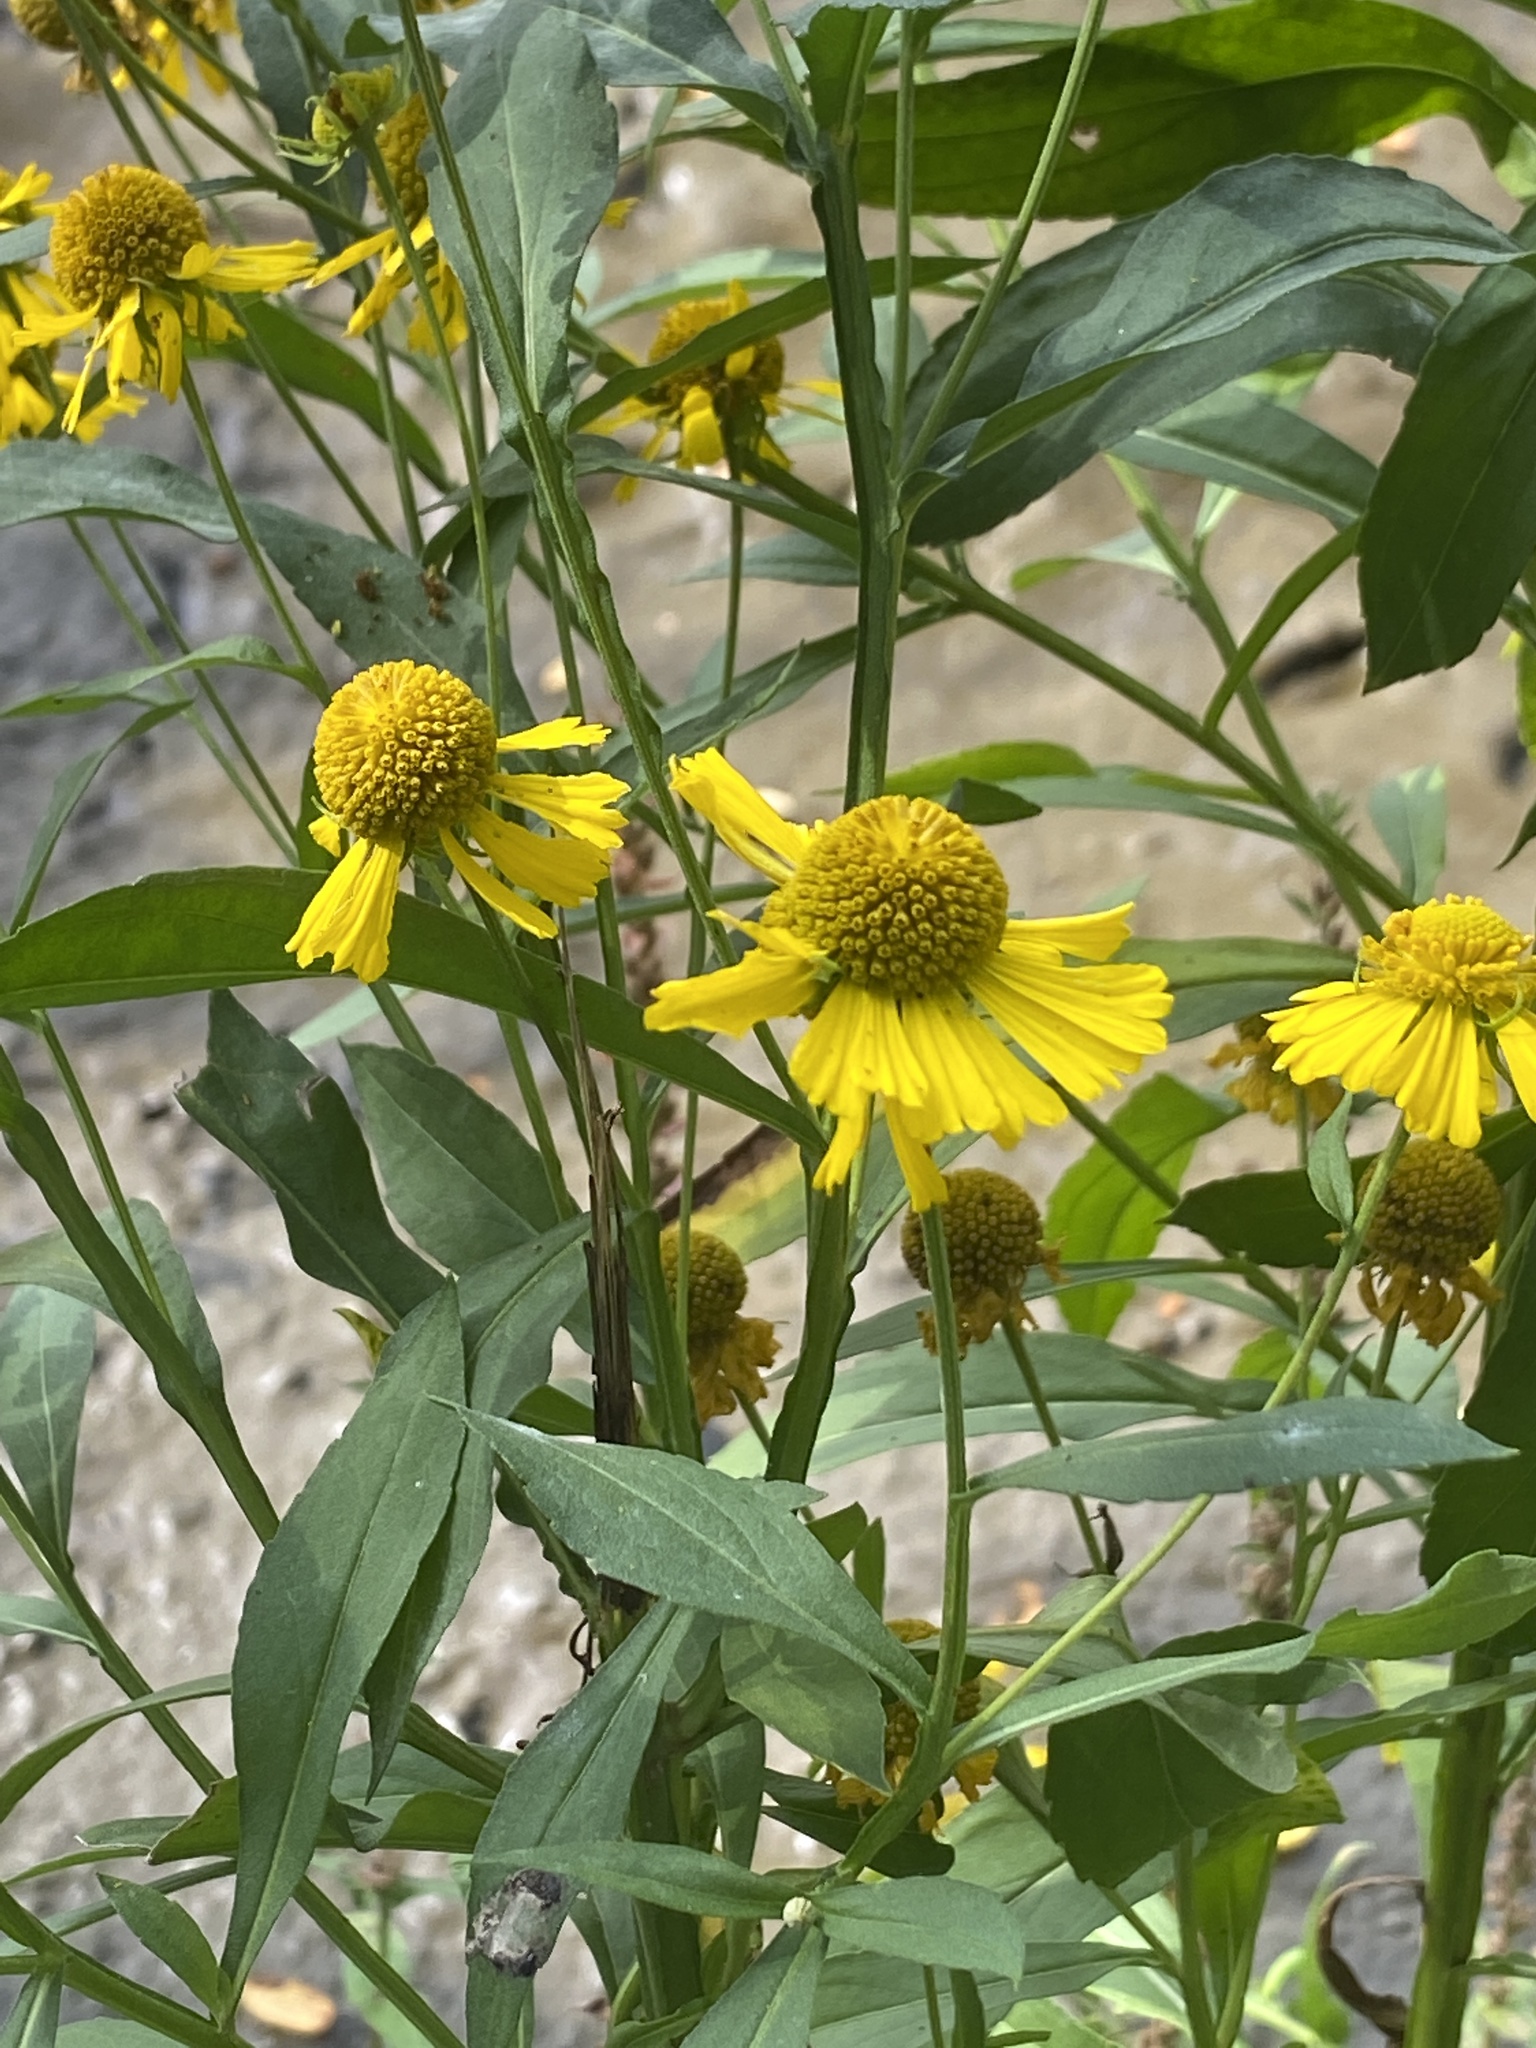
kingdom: Plantae
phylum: Tracheophyta
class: Magnoliopsida
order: Asterales
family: Asteraceae
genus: Helenium
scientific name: Helenium autumnale
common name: Sneezeweed
